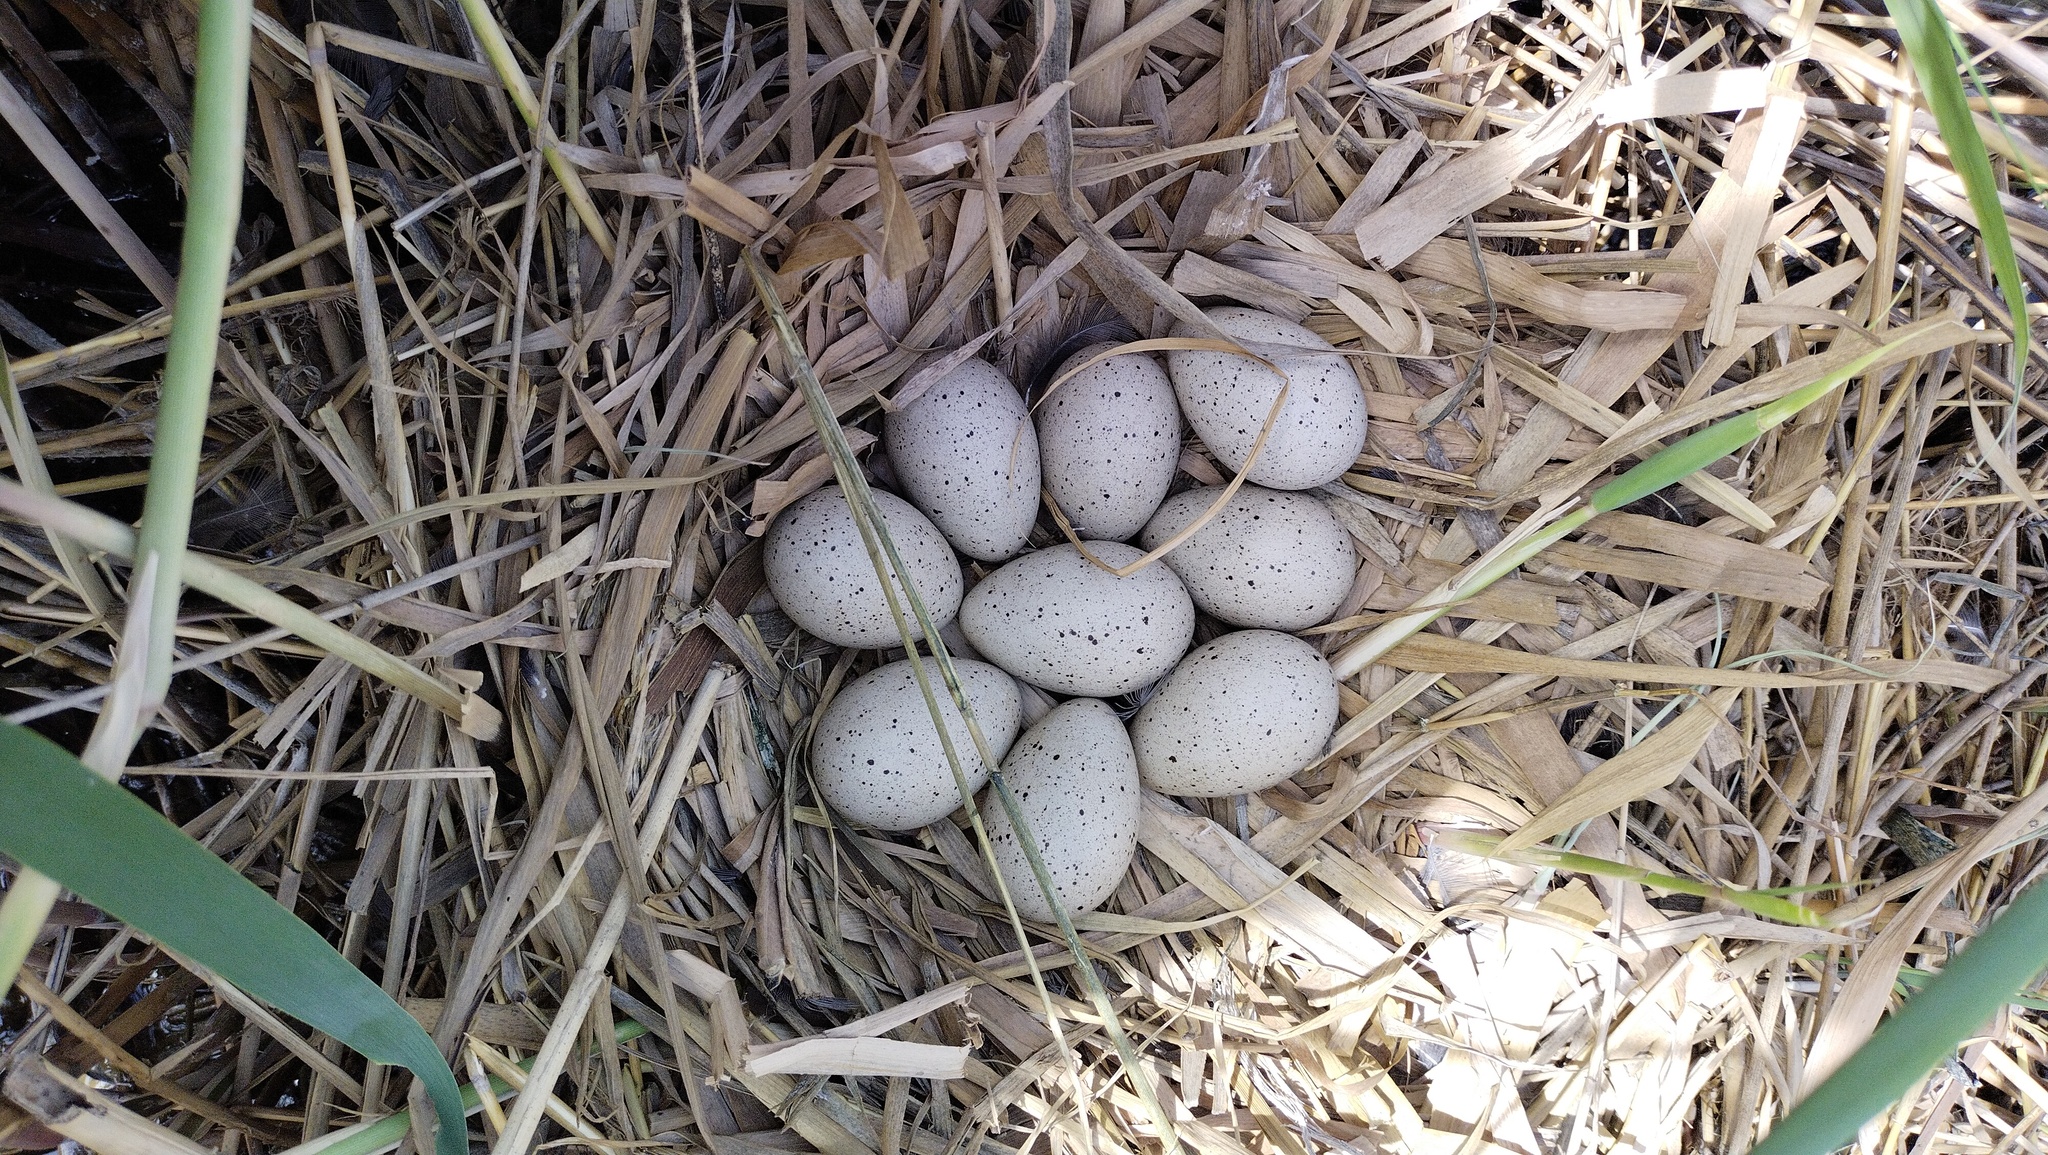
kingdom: Animalia
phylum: Chordata
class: Aves
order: Gruiformes
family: Rallidae
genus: Fulica
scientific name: Fulica atra
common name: Eurasian coot
